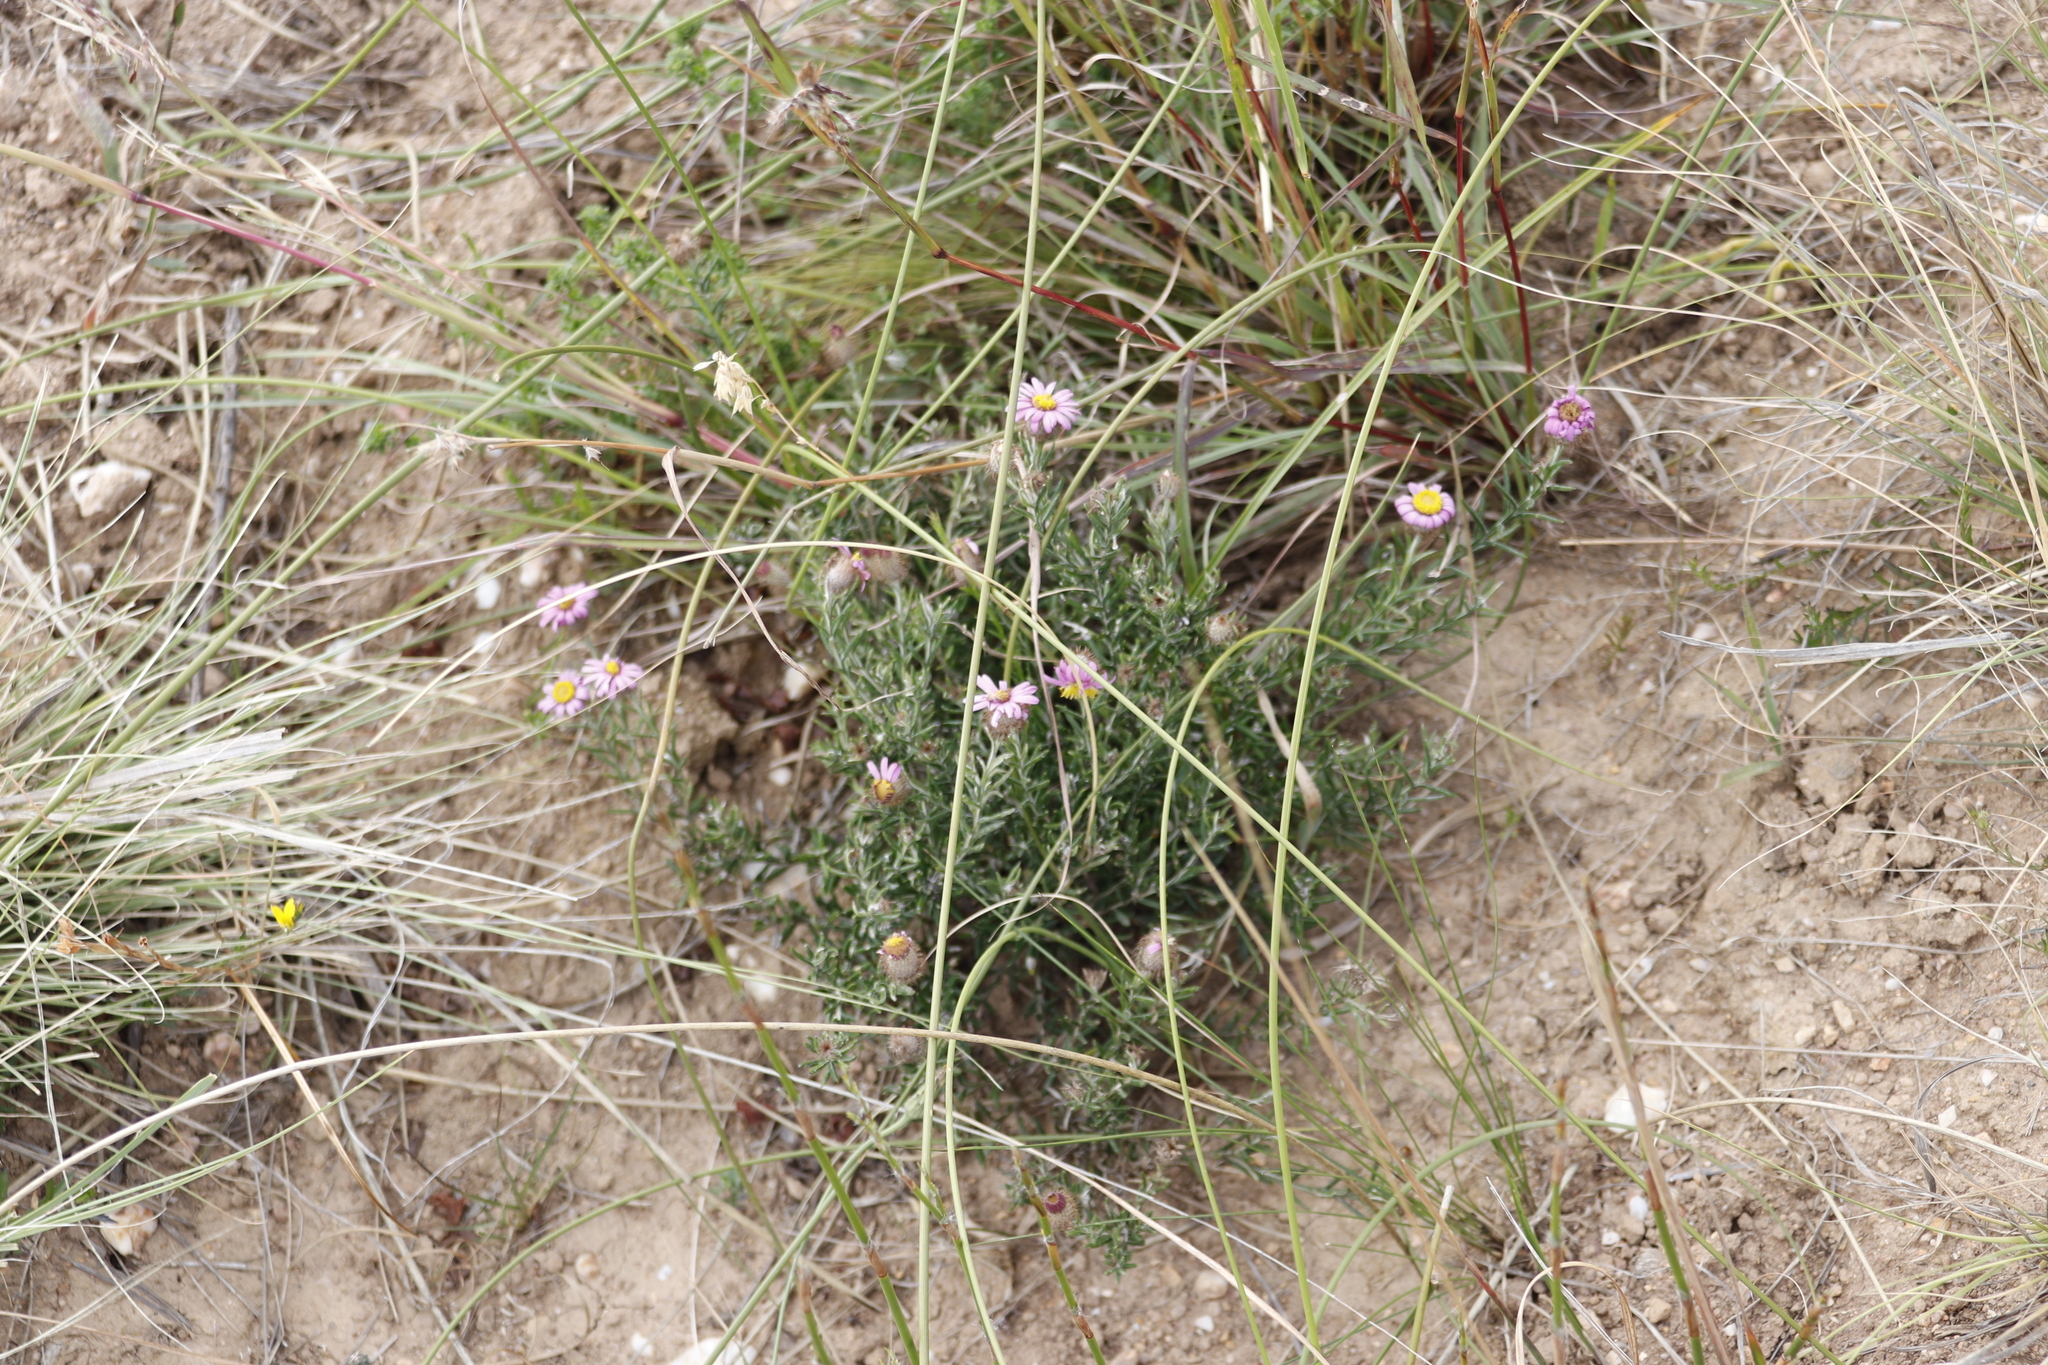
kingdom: Plantae
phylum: Tracheophyta
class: Magnoliopsida
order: Asterales
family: Asteraceae
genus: Athrixia
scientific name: Athrixia capensis
